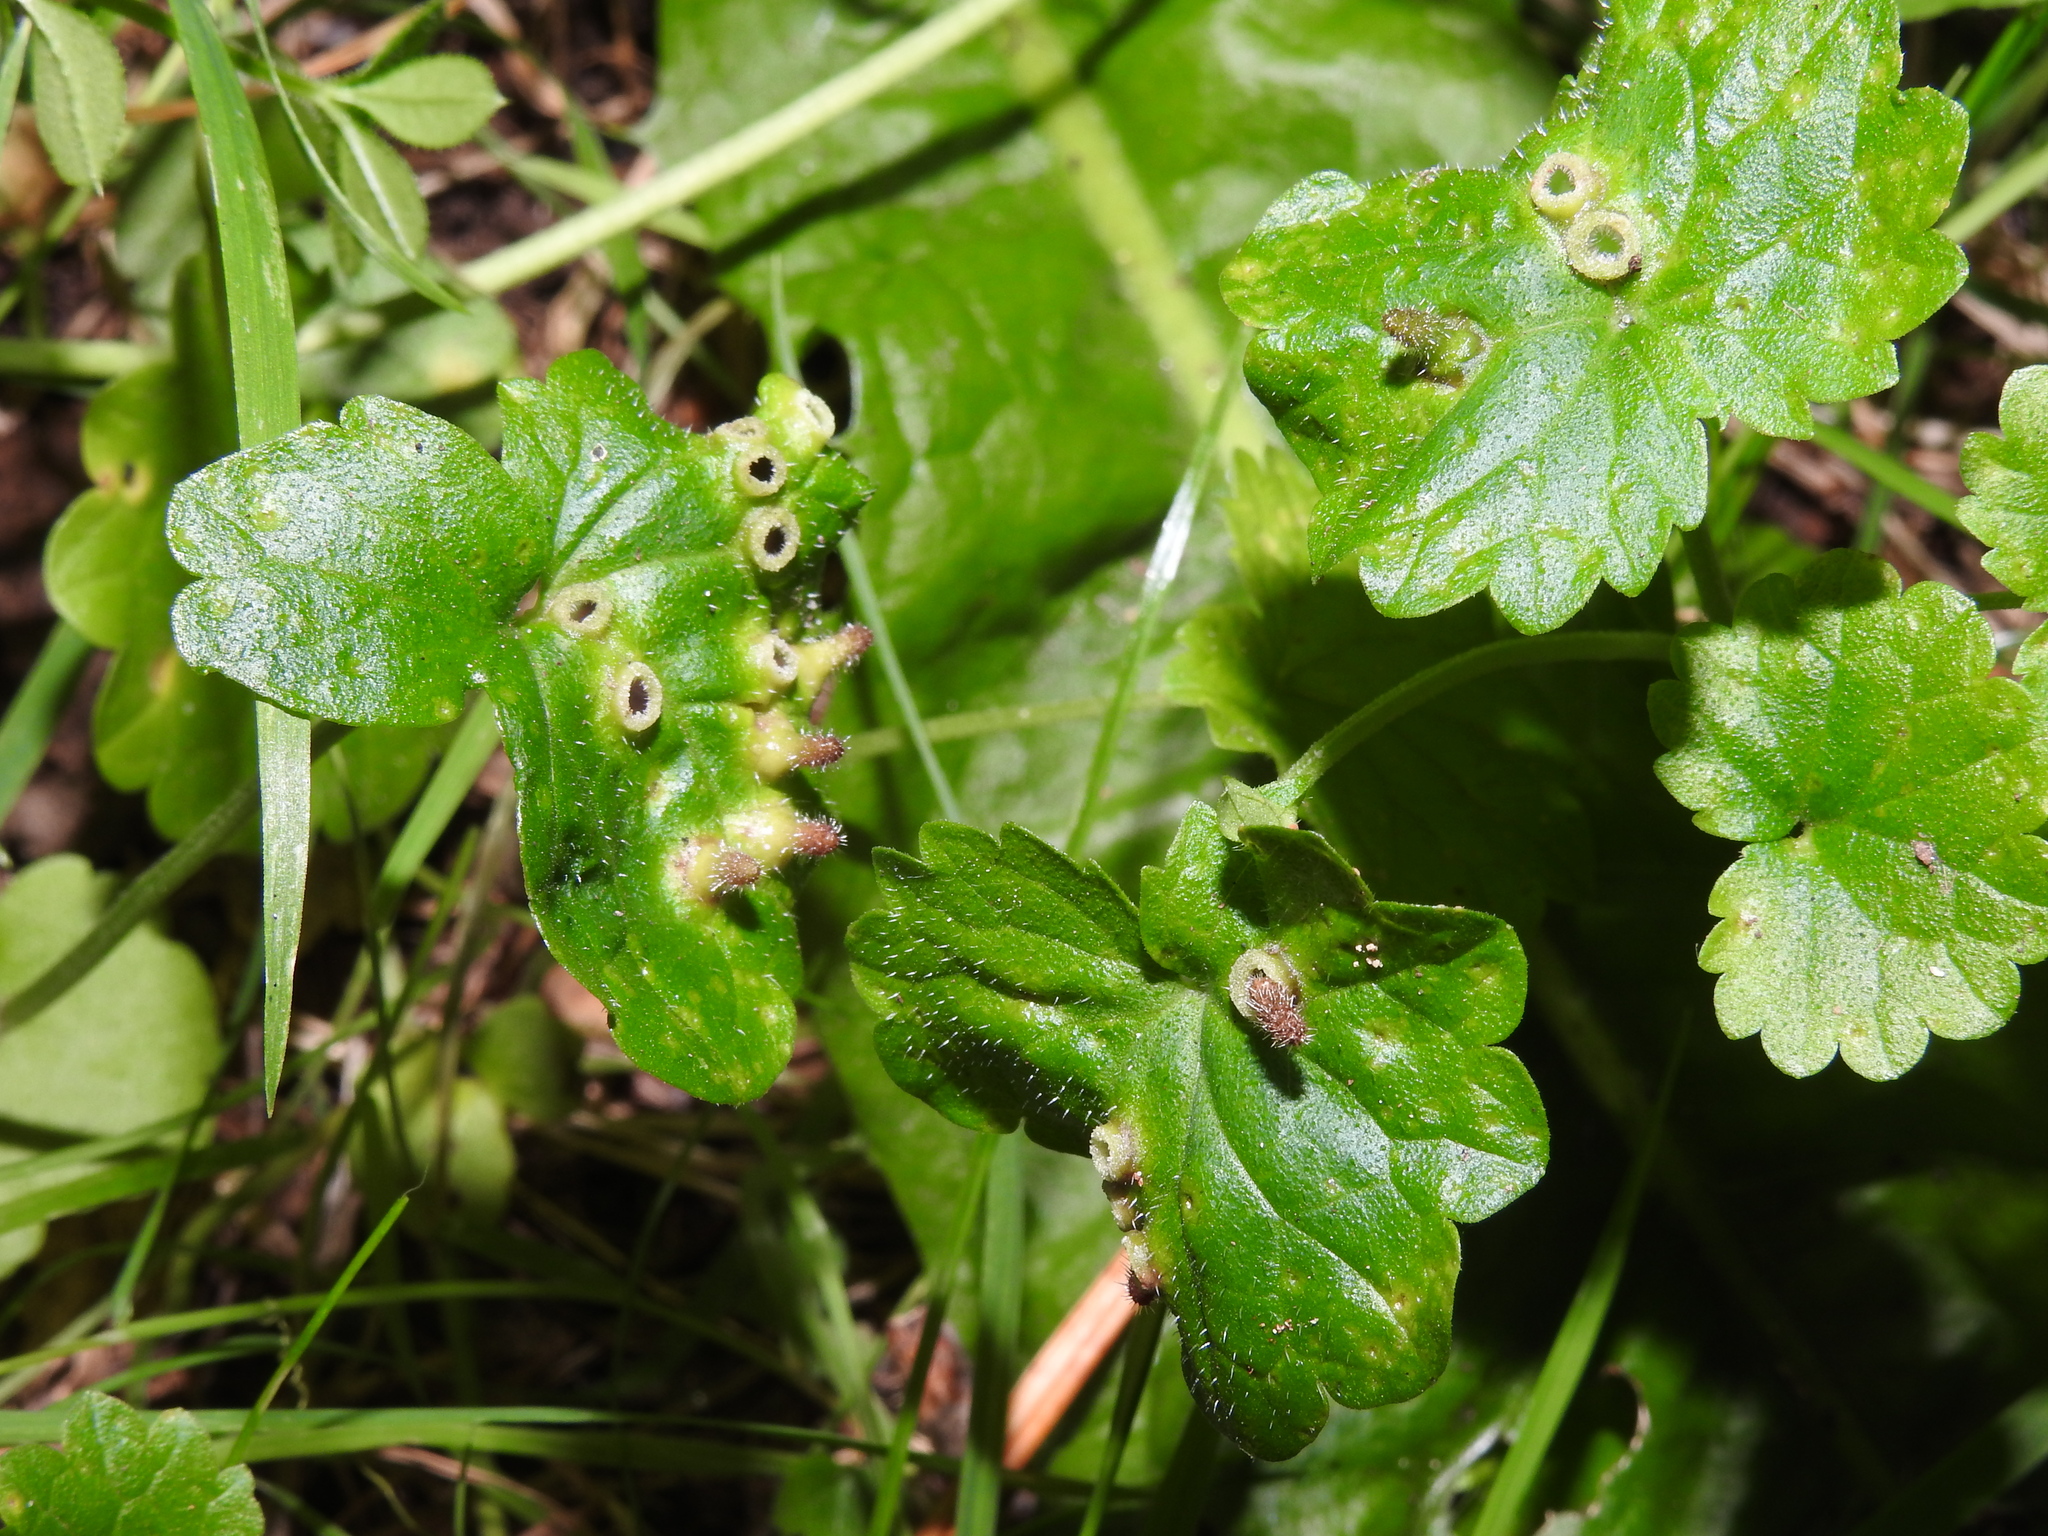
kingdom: Animalia
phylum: Arthropoda
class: Insecta
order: Diptera
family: Cecidomyiidae
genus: Rondaniola
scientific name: Rondaniola bursaria
